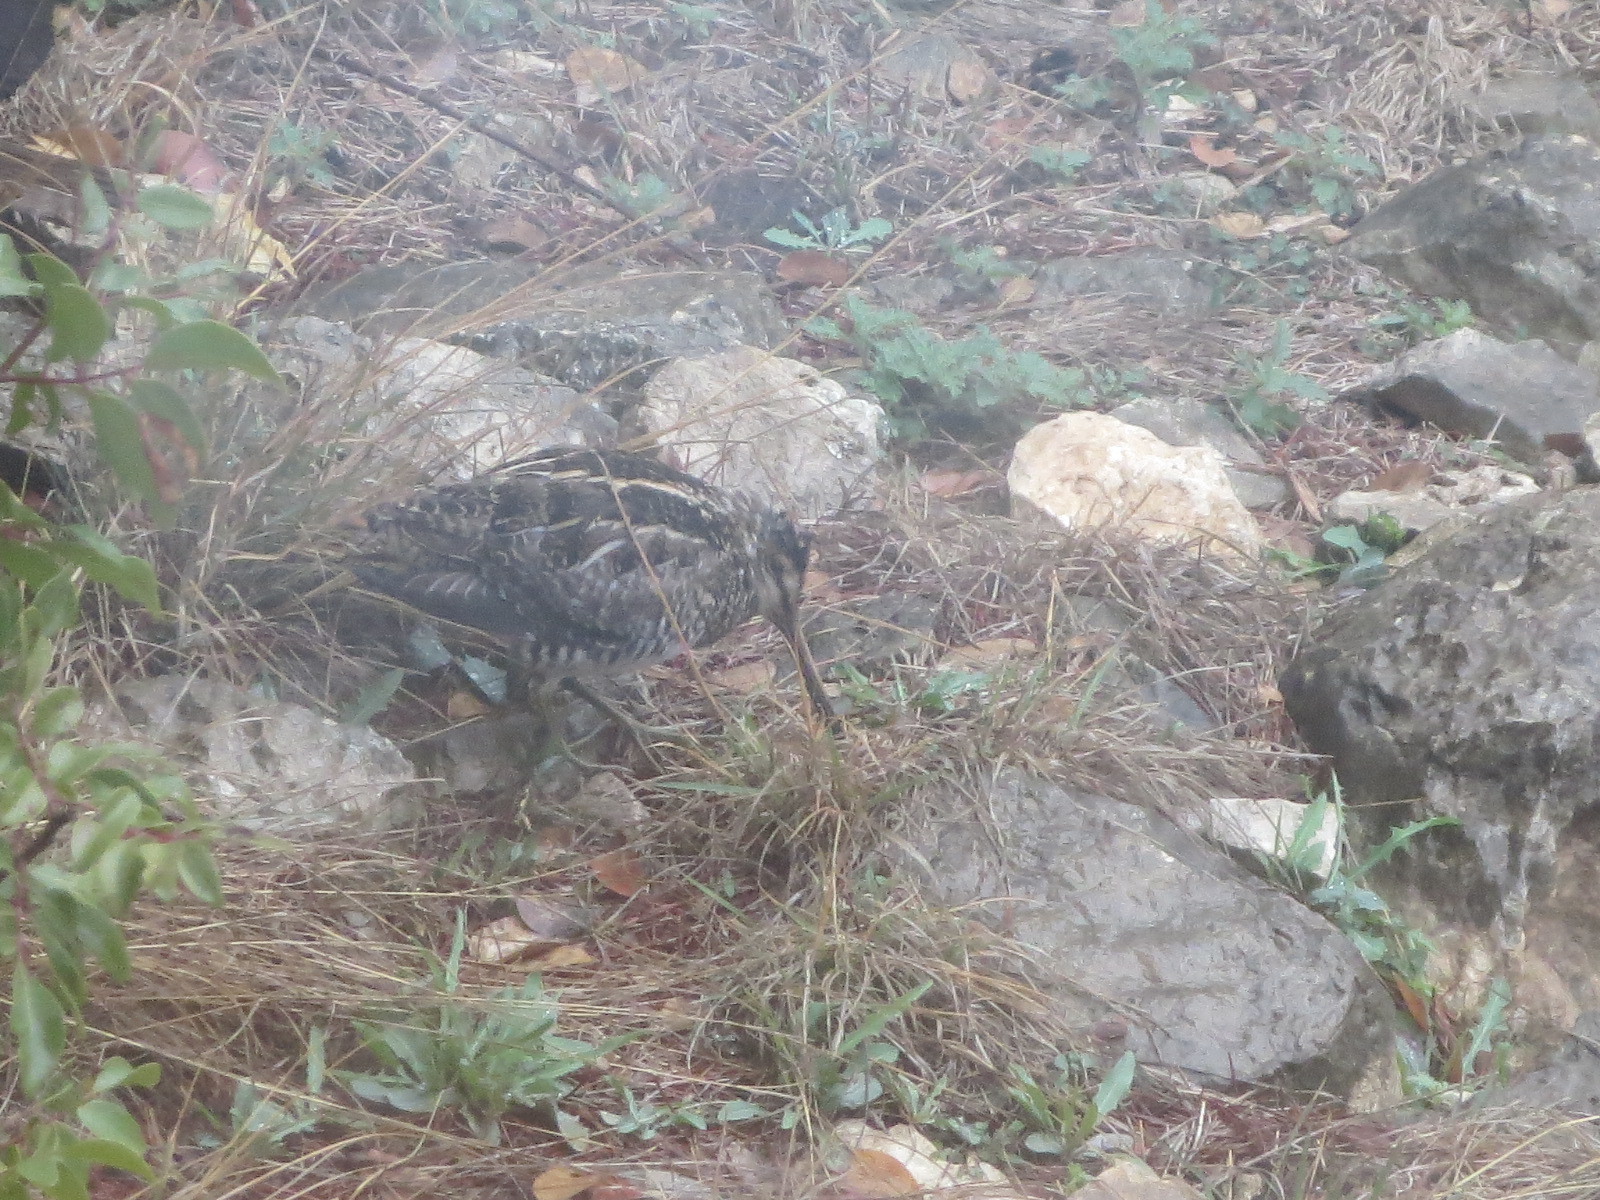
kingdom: Animalia
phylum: Chordata
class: Aves
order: Charadriiformes
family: Scolopacidae
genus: Gallinago
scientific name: Gallinago delicata
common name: Wilson's snipe
